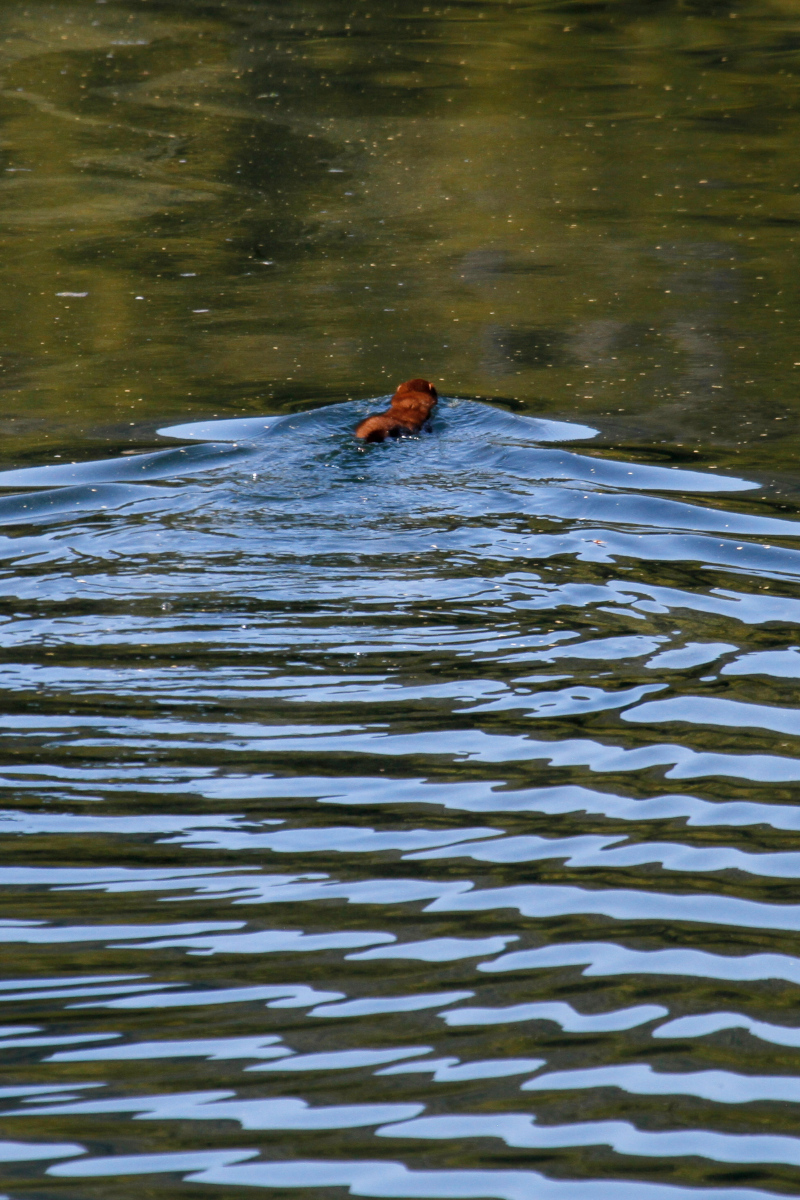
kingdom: Animalia
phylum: Chordata
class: Mammalia
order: Carnivora
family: Mustelidae
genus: Mustela
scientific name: Mustela
